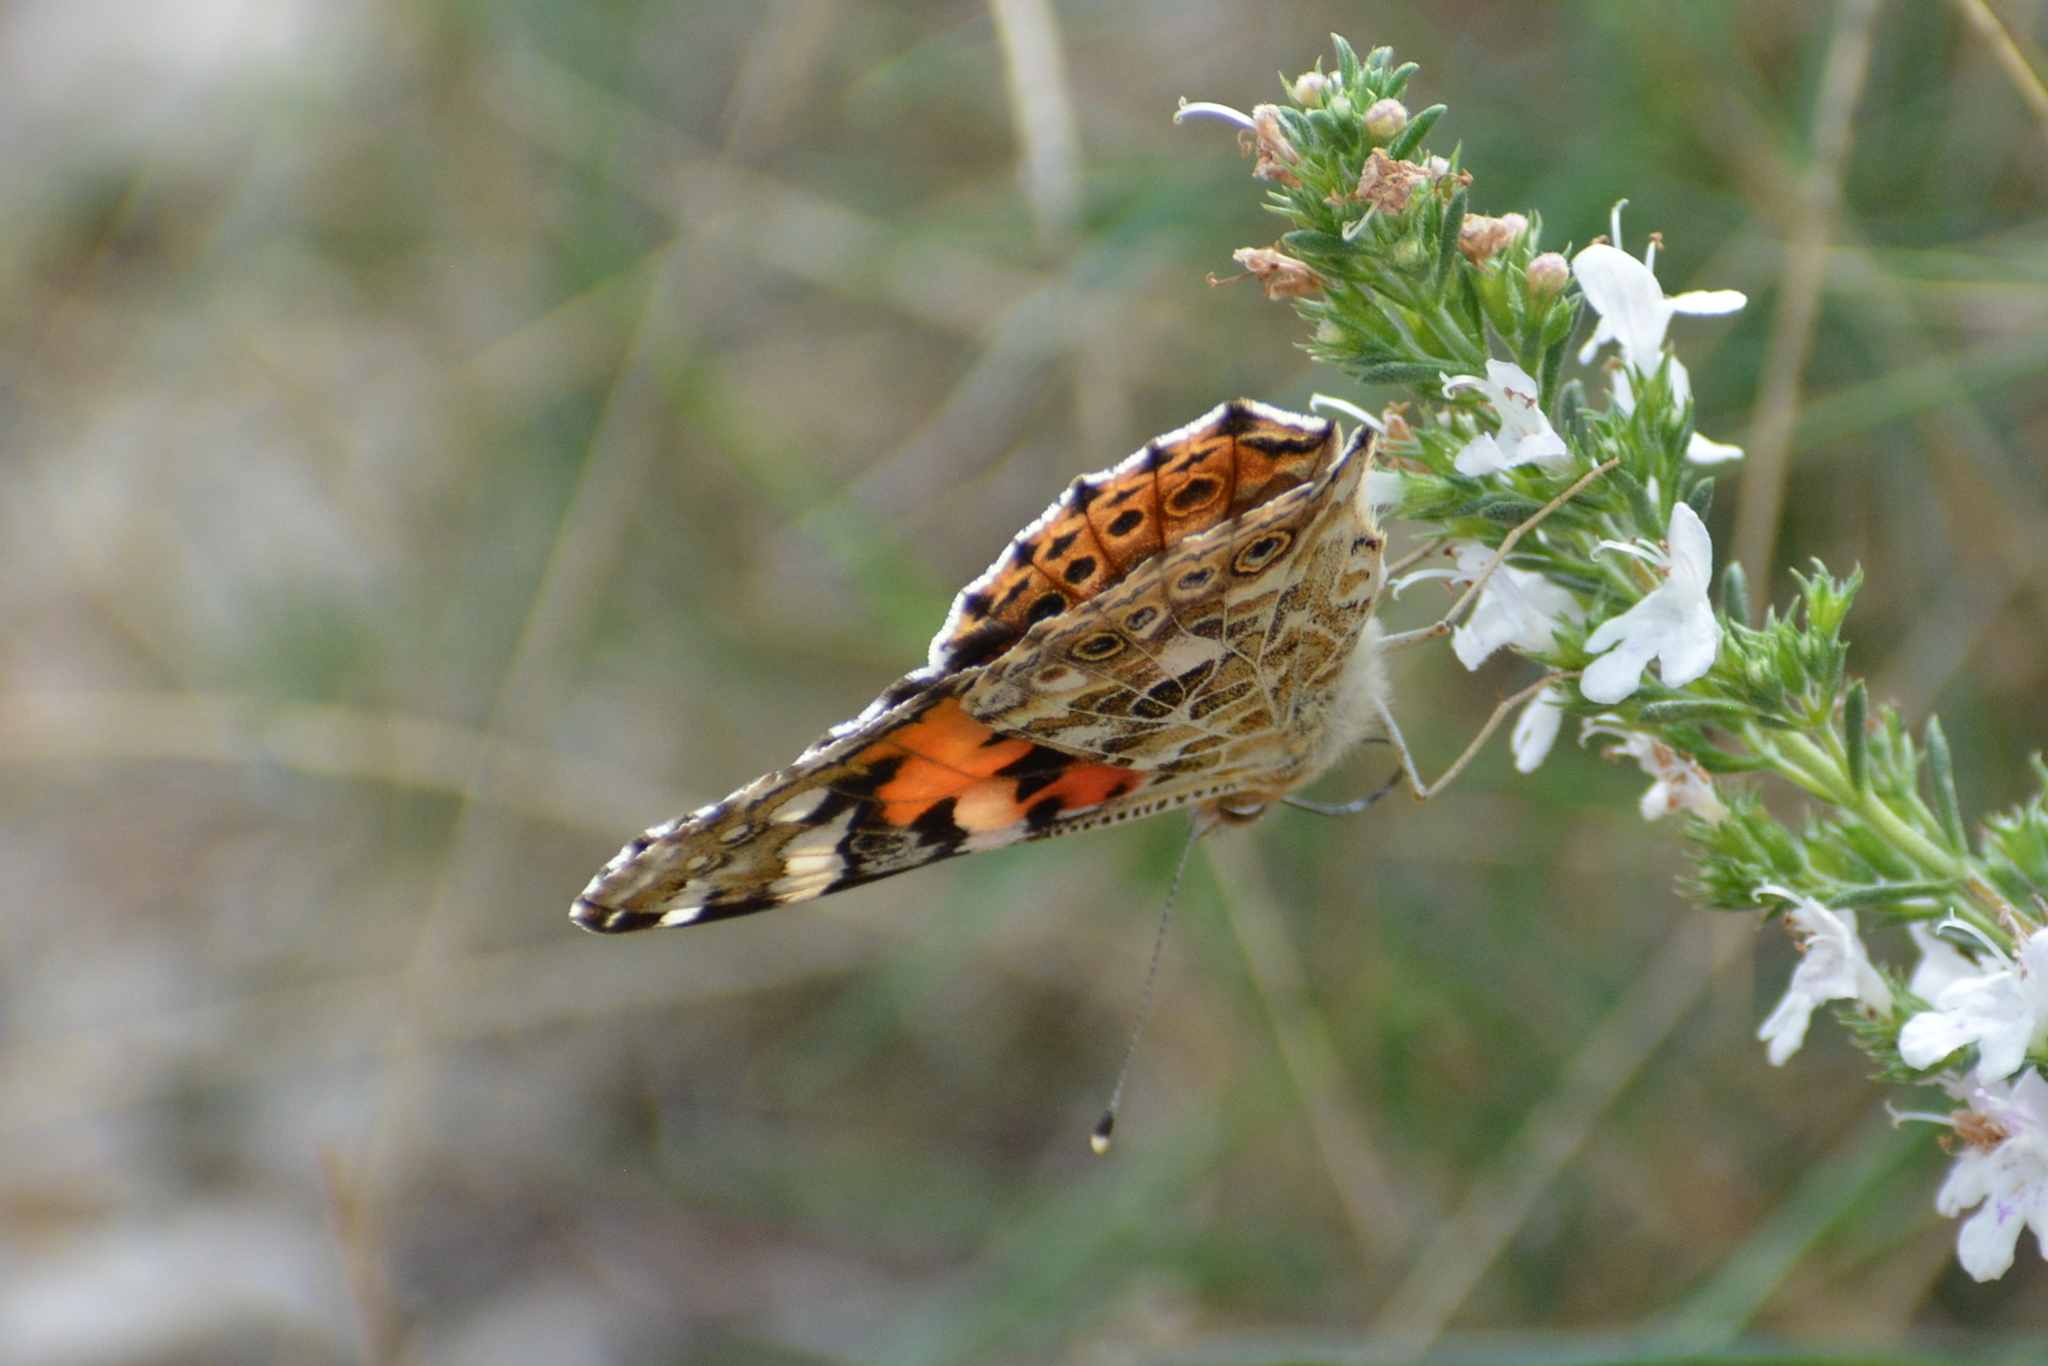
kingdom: Animalia
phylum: Arthropoda
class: Insecta
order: Lepidoptera
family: Nymphalidae
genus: Vanessa
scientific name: Vanessa cardui
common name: Painted lady
